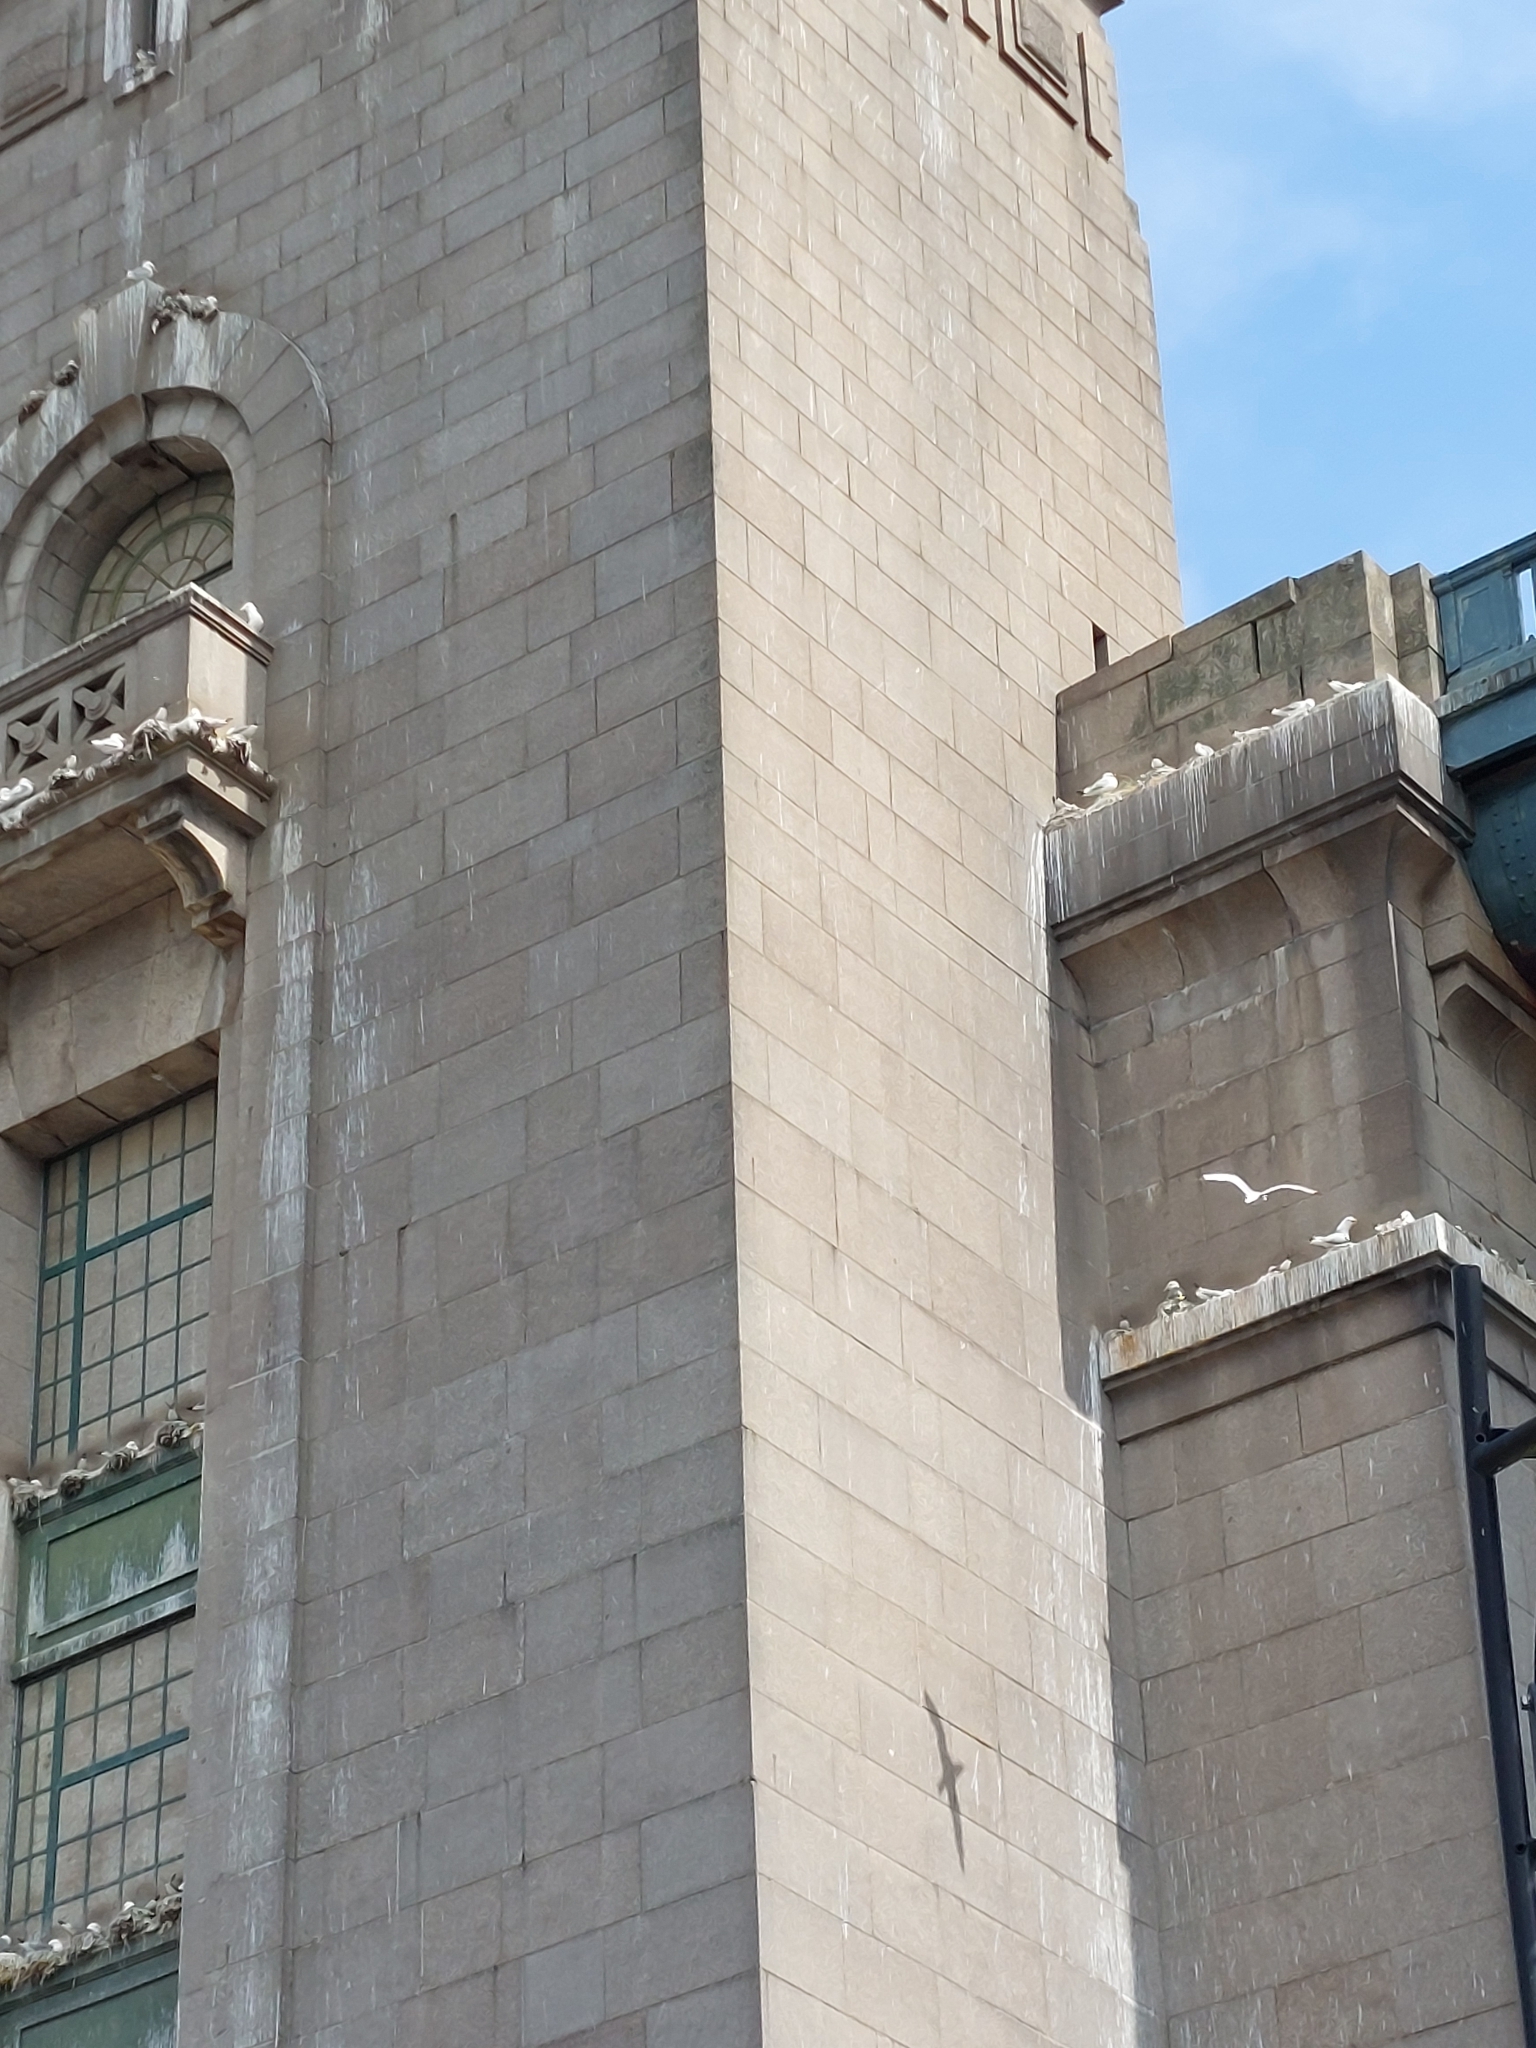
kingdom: Animalia
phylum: Chordata
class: Aves
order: Charadriiformes
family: Laridae
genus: Rissa
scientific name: Rissa tridactyla
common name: Black-legged kittiwake
